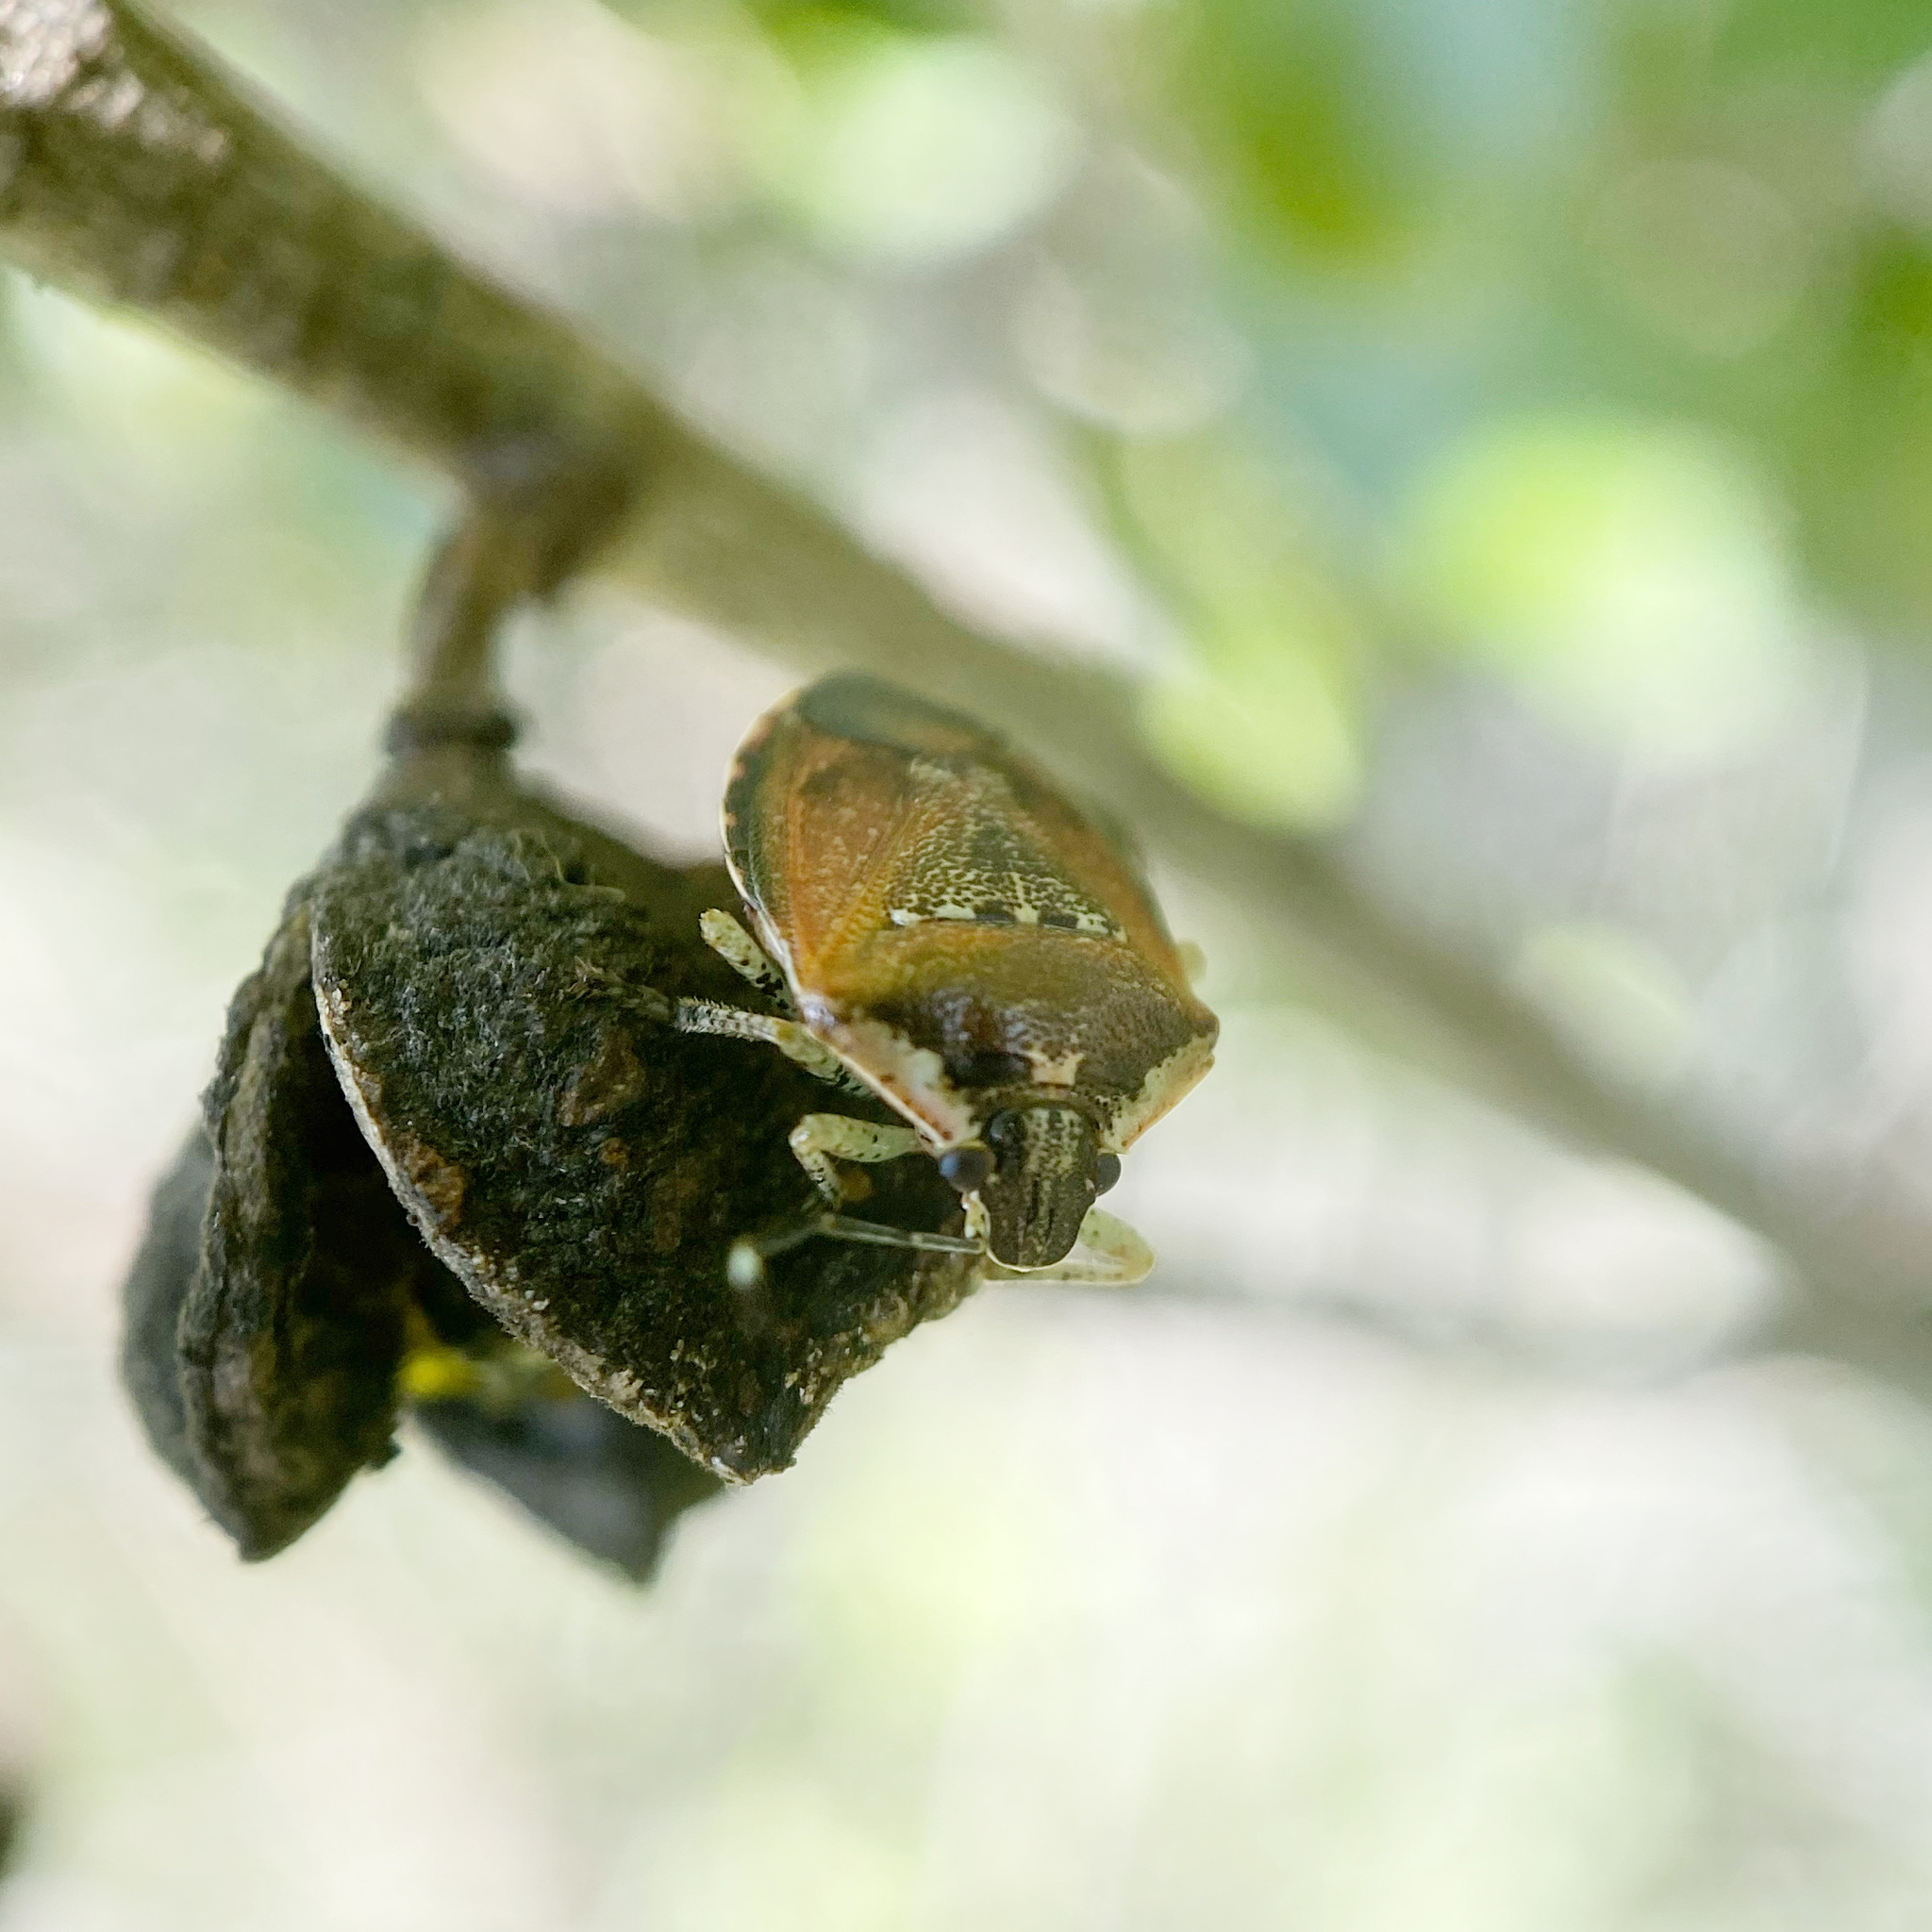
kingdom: Animalia
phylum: Arthropoda
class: Insecta
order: Hemiptera
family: Pentatomidae
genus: Monteithiella
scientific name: Monteithiella
